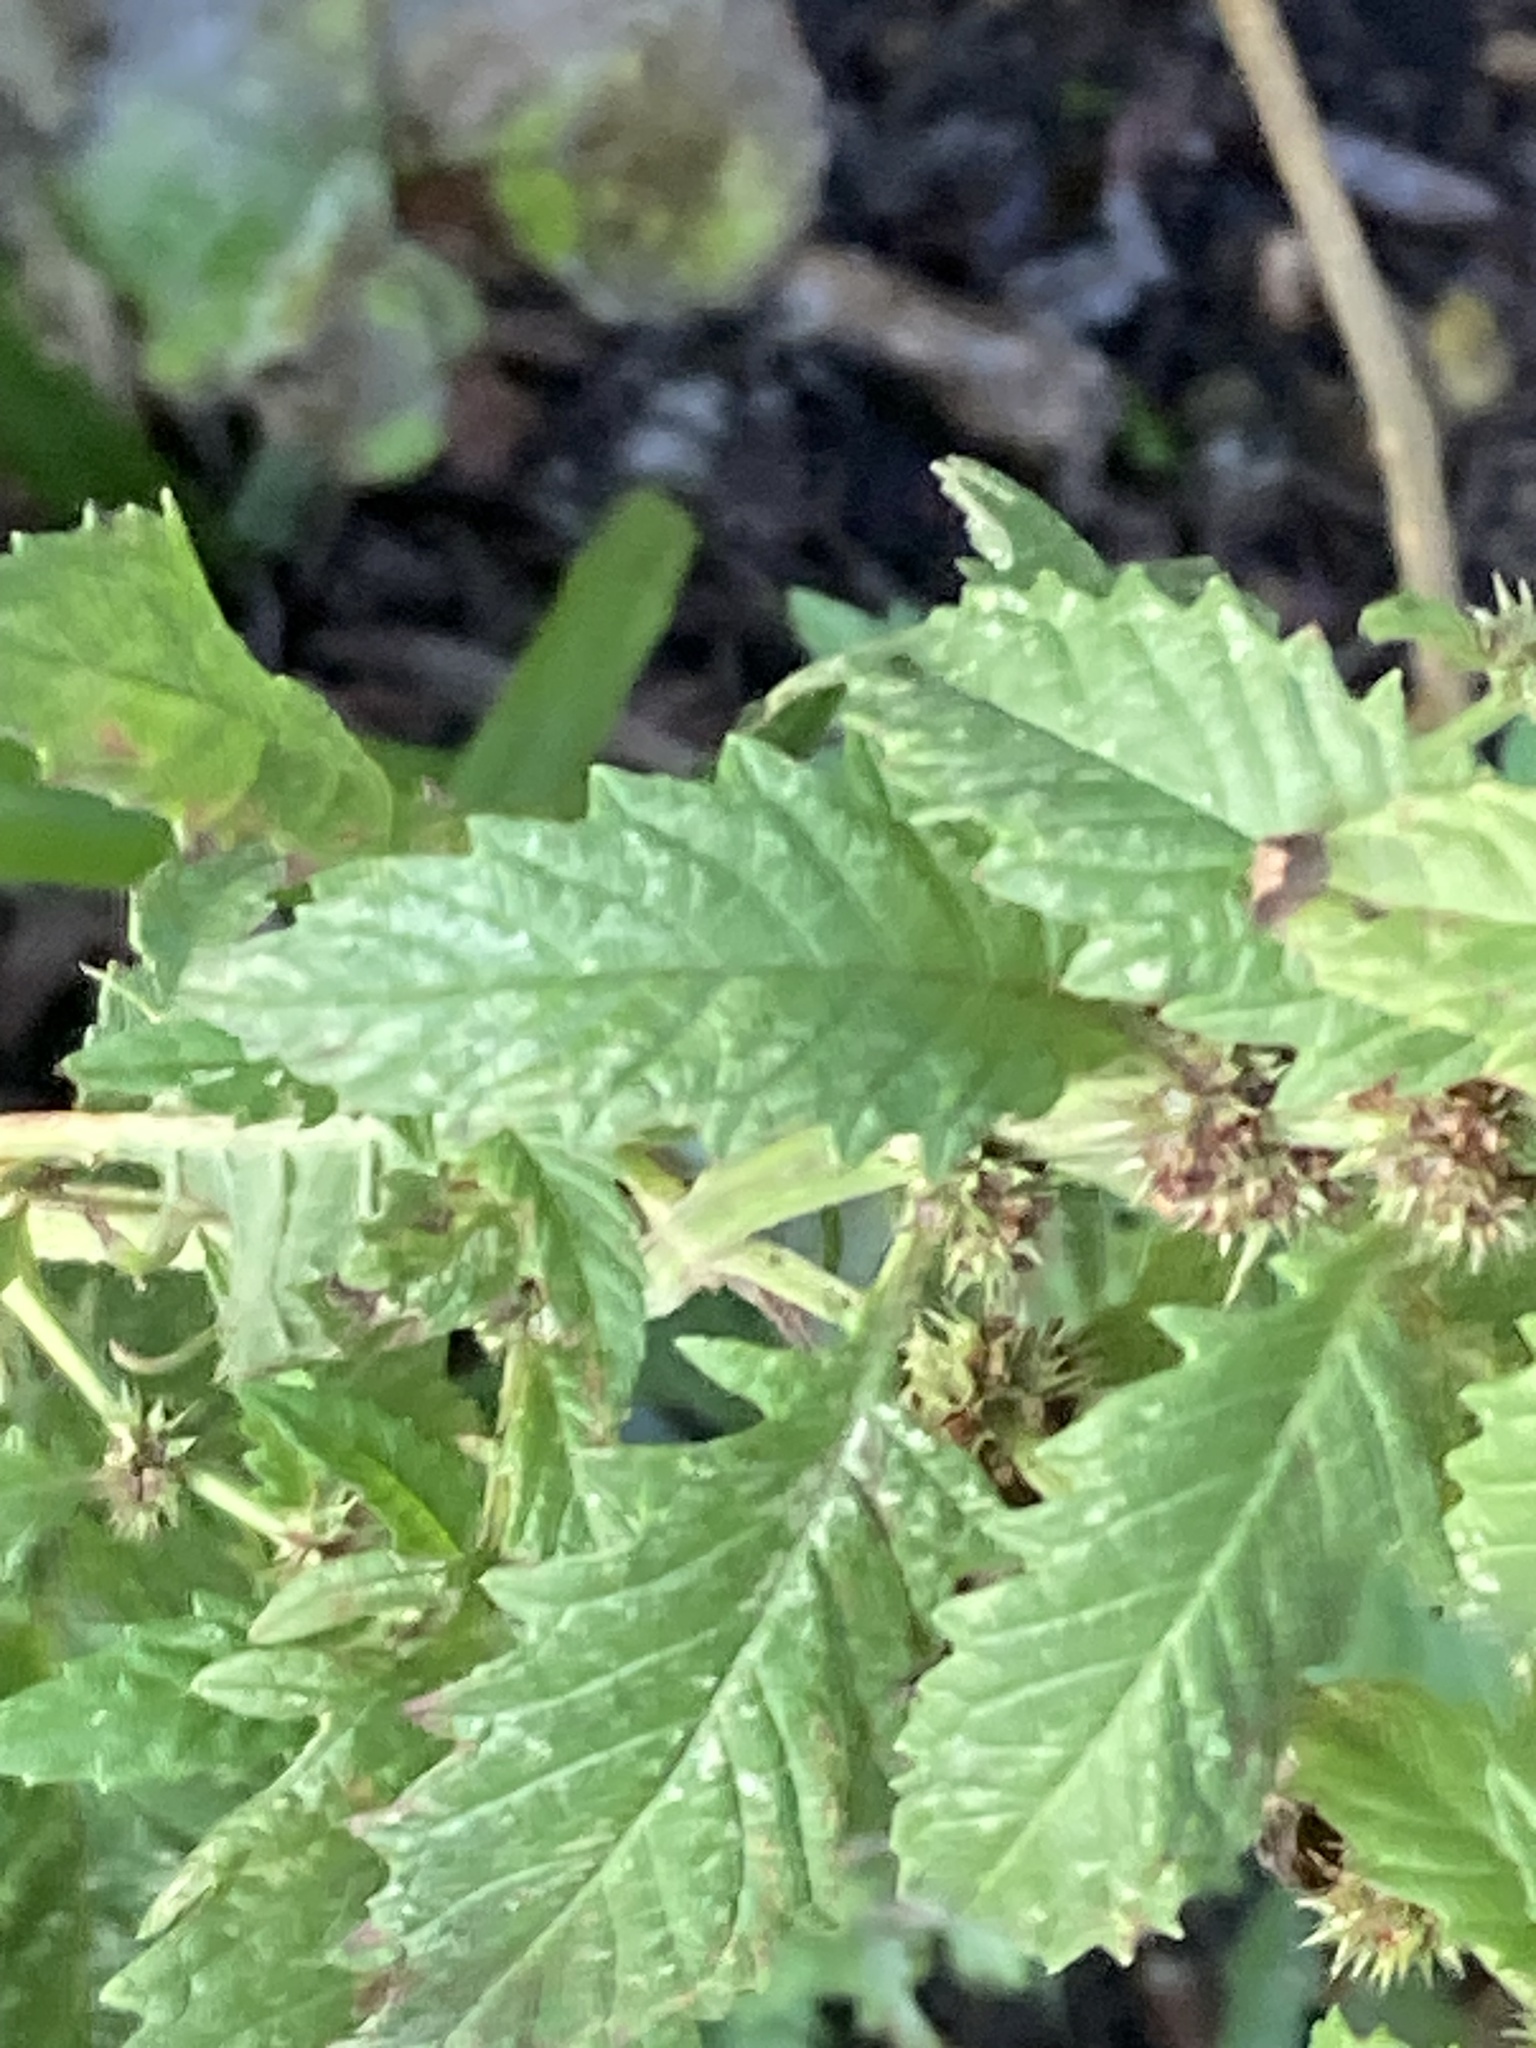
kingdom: Plantae
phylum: Tracheophyta
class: Magnoliopsida
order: Lamiales
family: Lamiaceae
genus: Lycopus
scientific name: Lycopus europaeus
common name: European bugleweed
